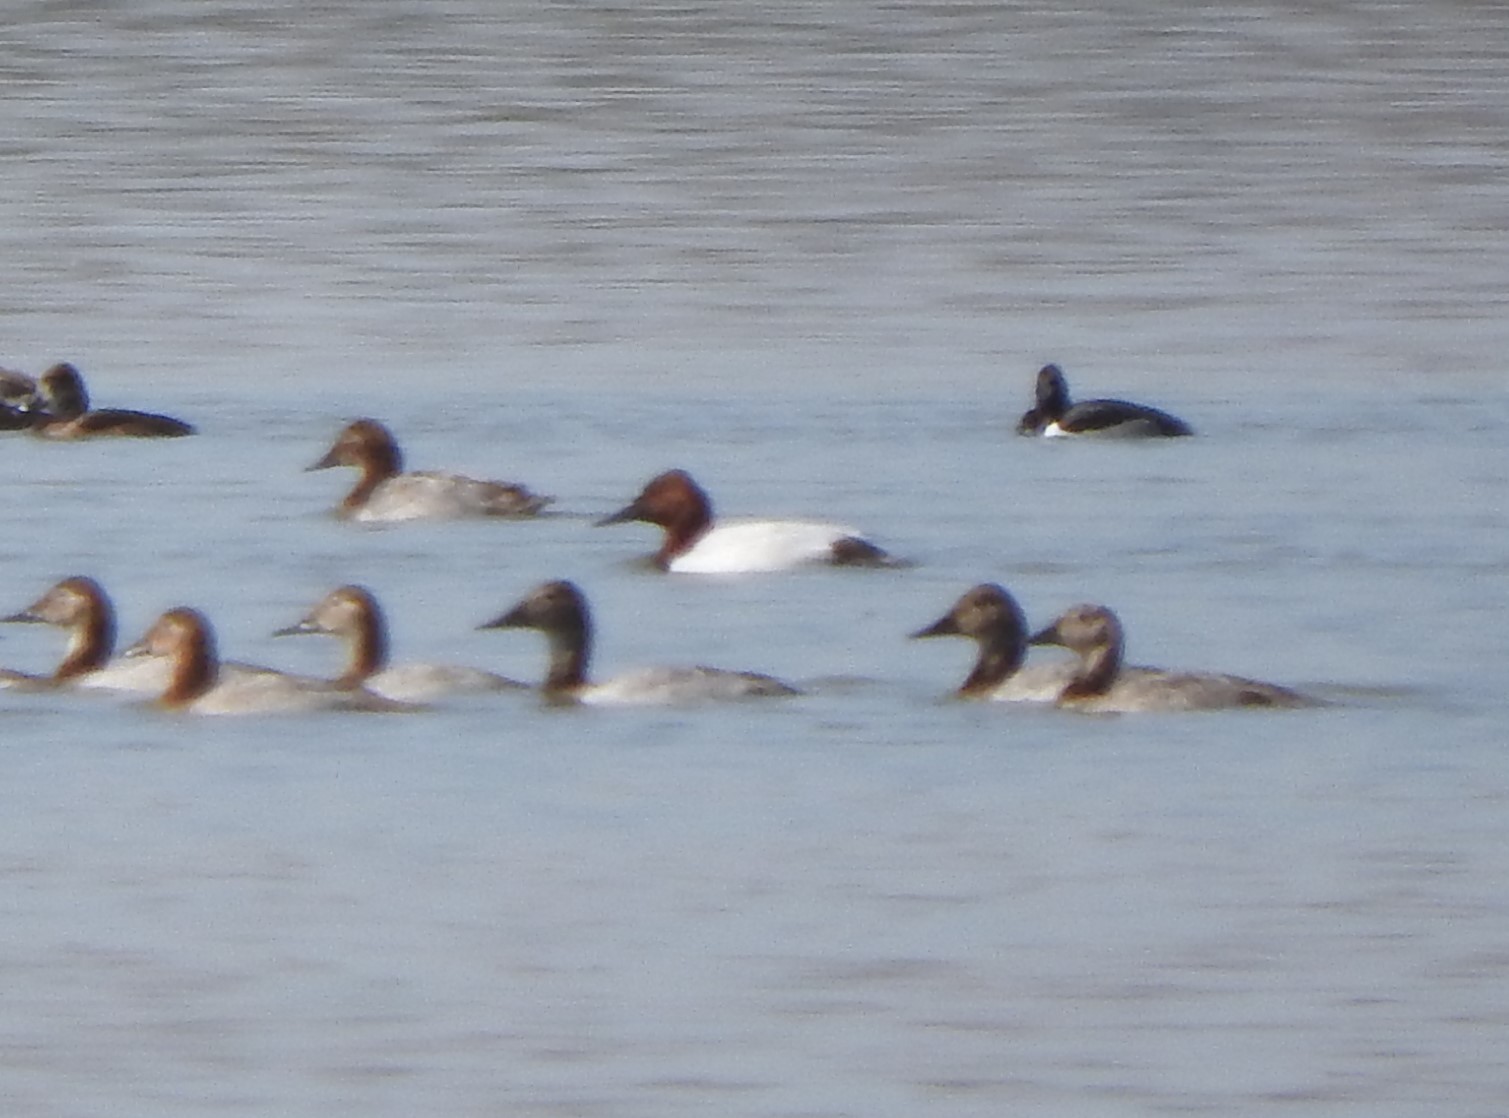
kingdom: Animalia
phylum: Chordata
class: Aves
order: Anseriformes
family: Anatidae
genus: Aythya
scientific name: Aythya valisineria
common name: Canvasback
